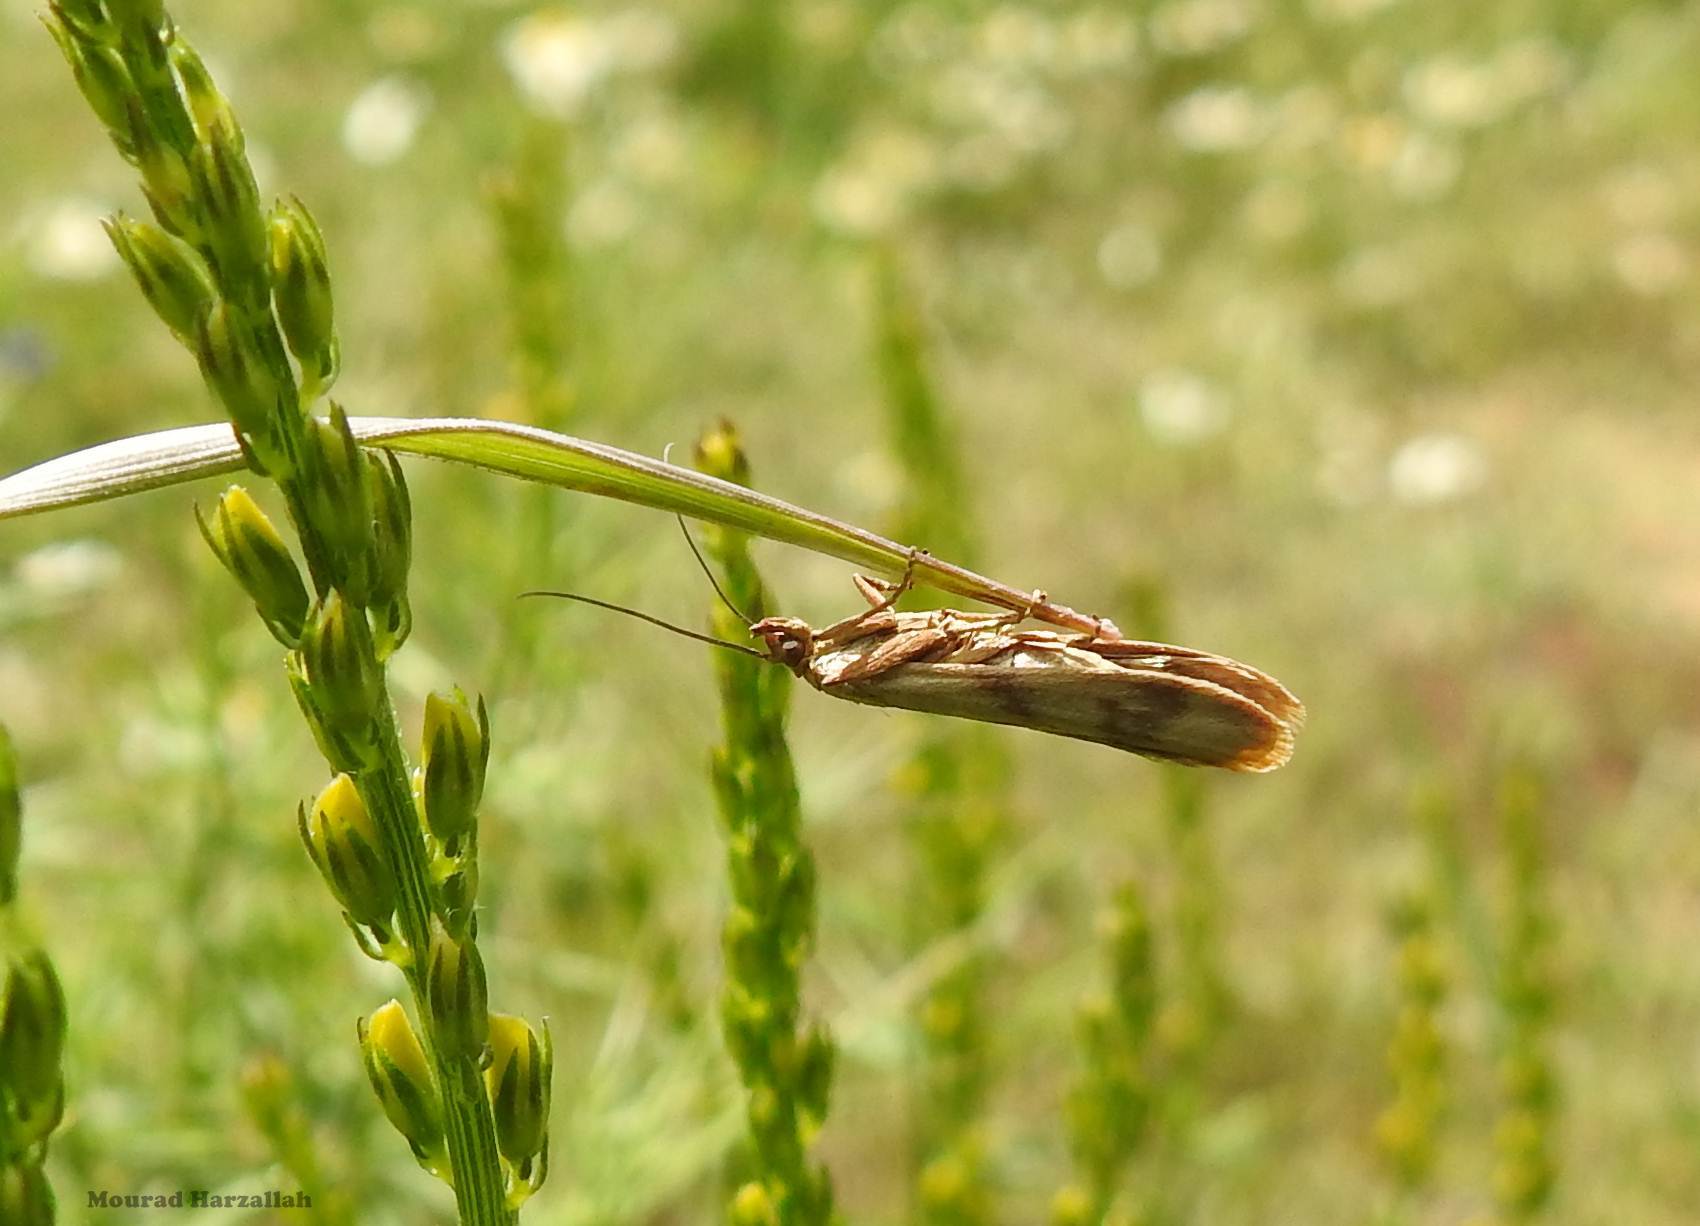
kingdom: Animalia
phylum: Arthropoda
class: Insecta
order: Lepidoptera
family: Pyralidae
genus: Homoeosoma
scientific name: Homoeosoma sinuella
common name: Twin-barred knot-horn
